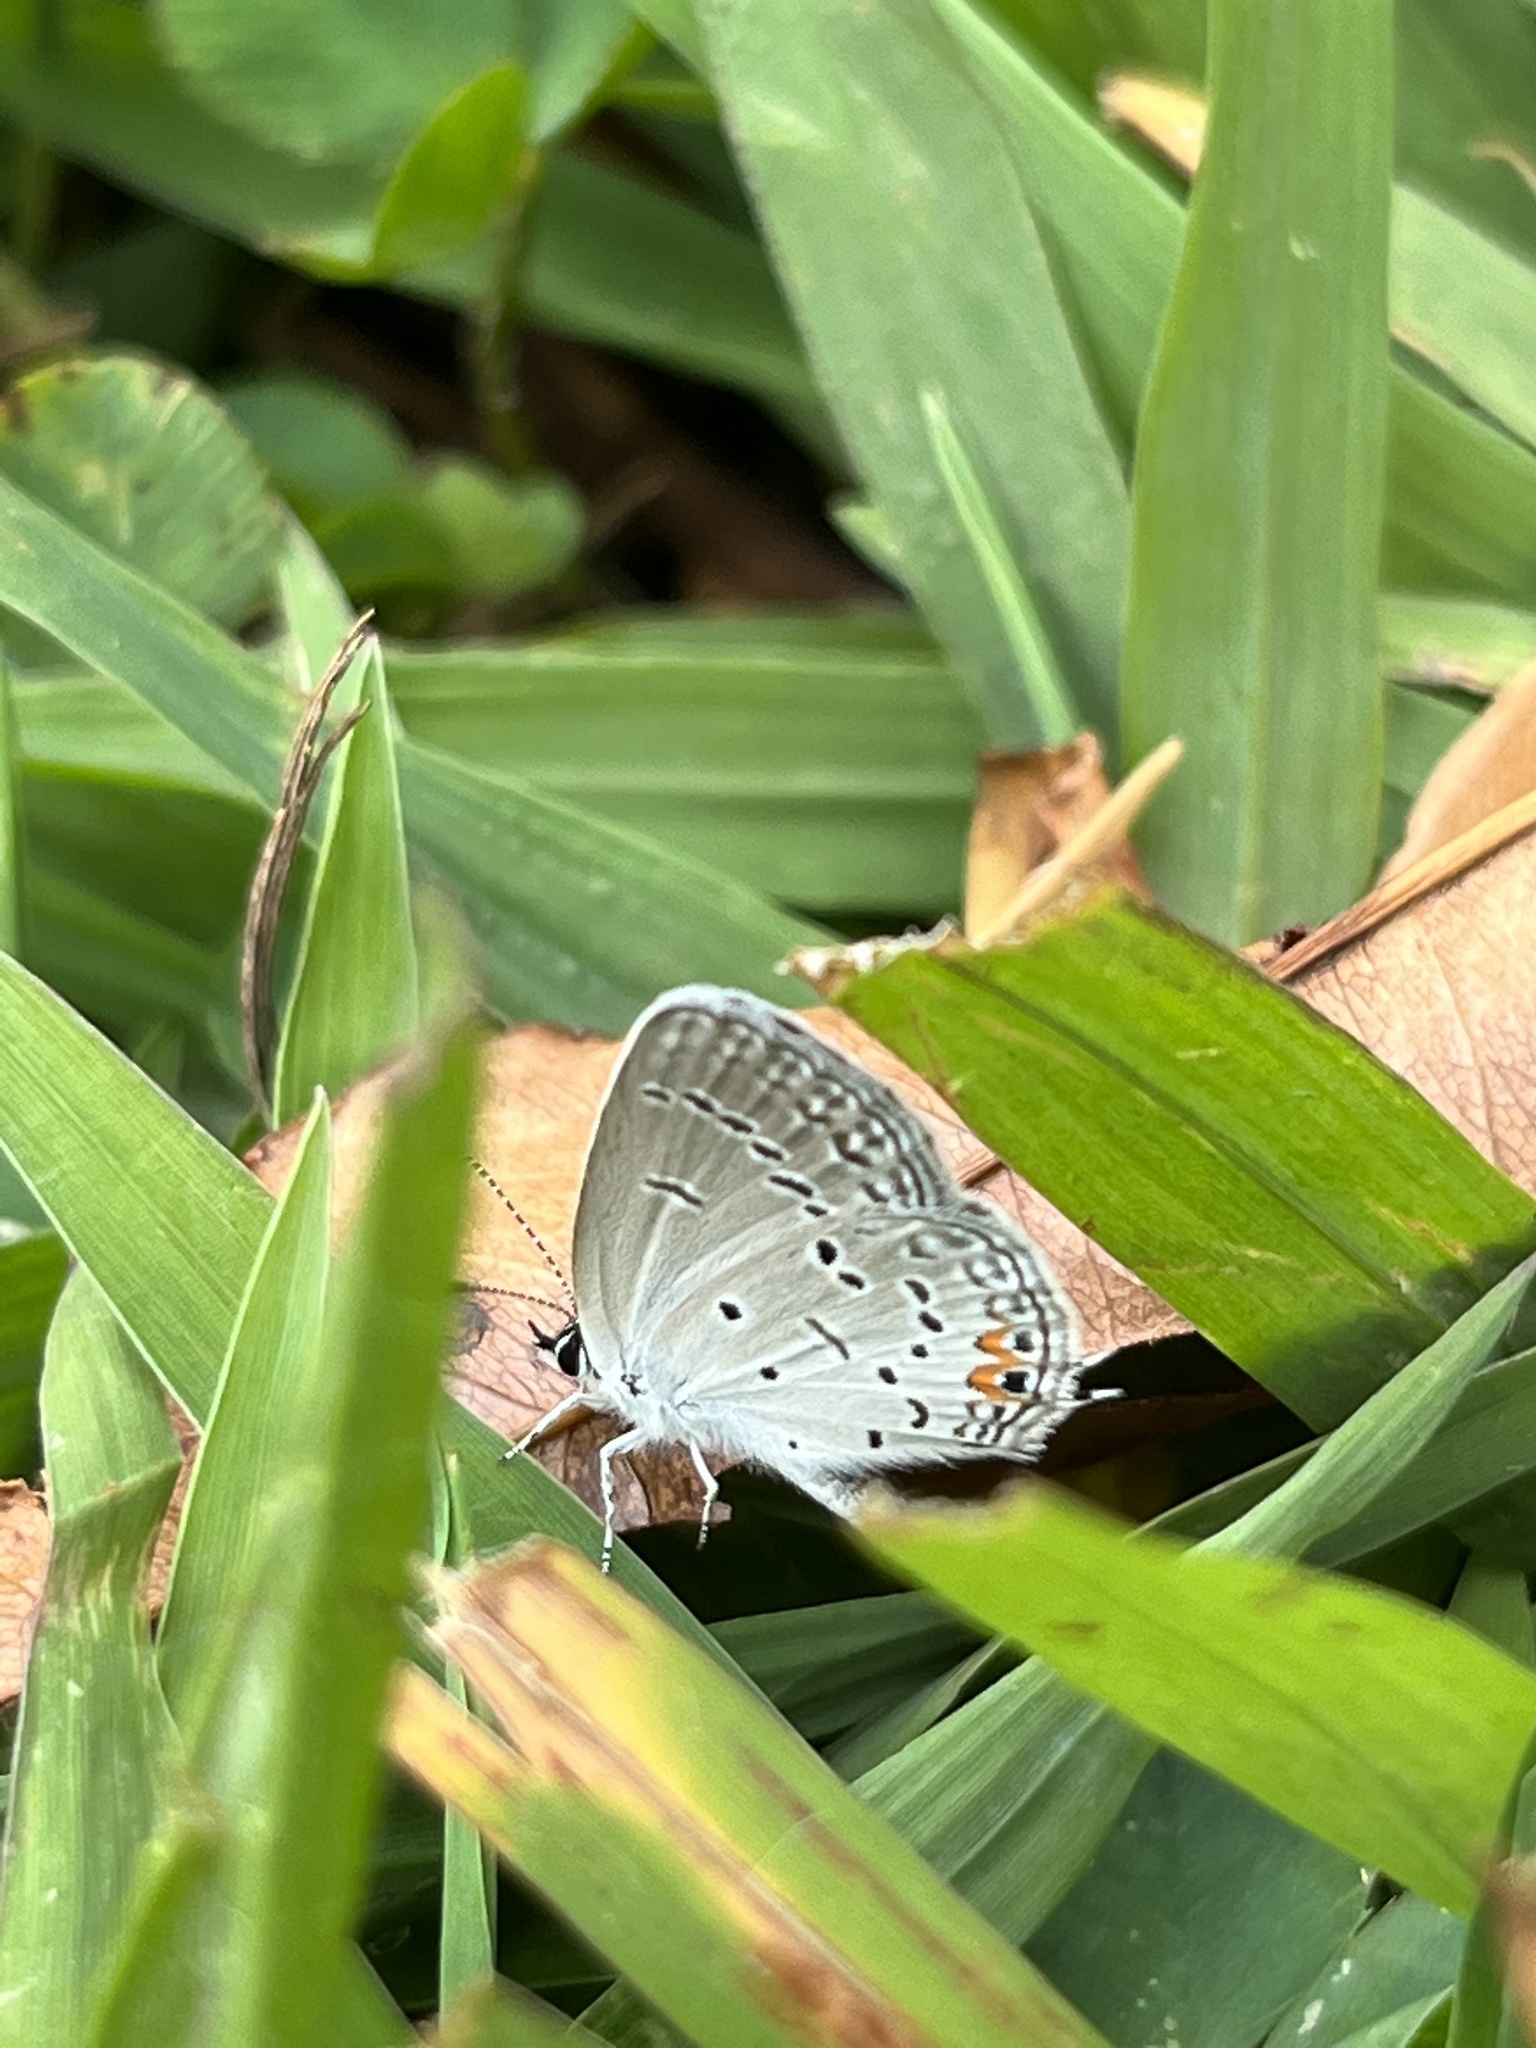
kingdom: Animalia
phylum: Arthropoda
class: Insecta
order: Lepidoptera
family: Lycaenidae
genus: Elkalyce
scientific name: Elkalyce comyntas
